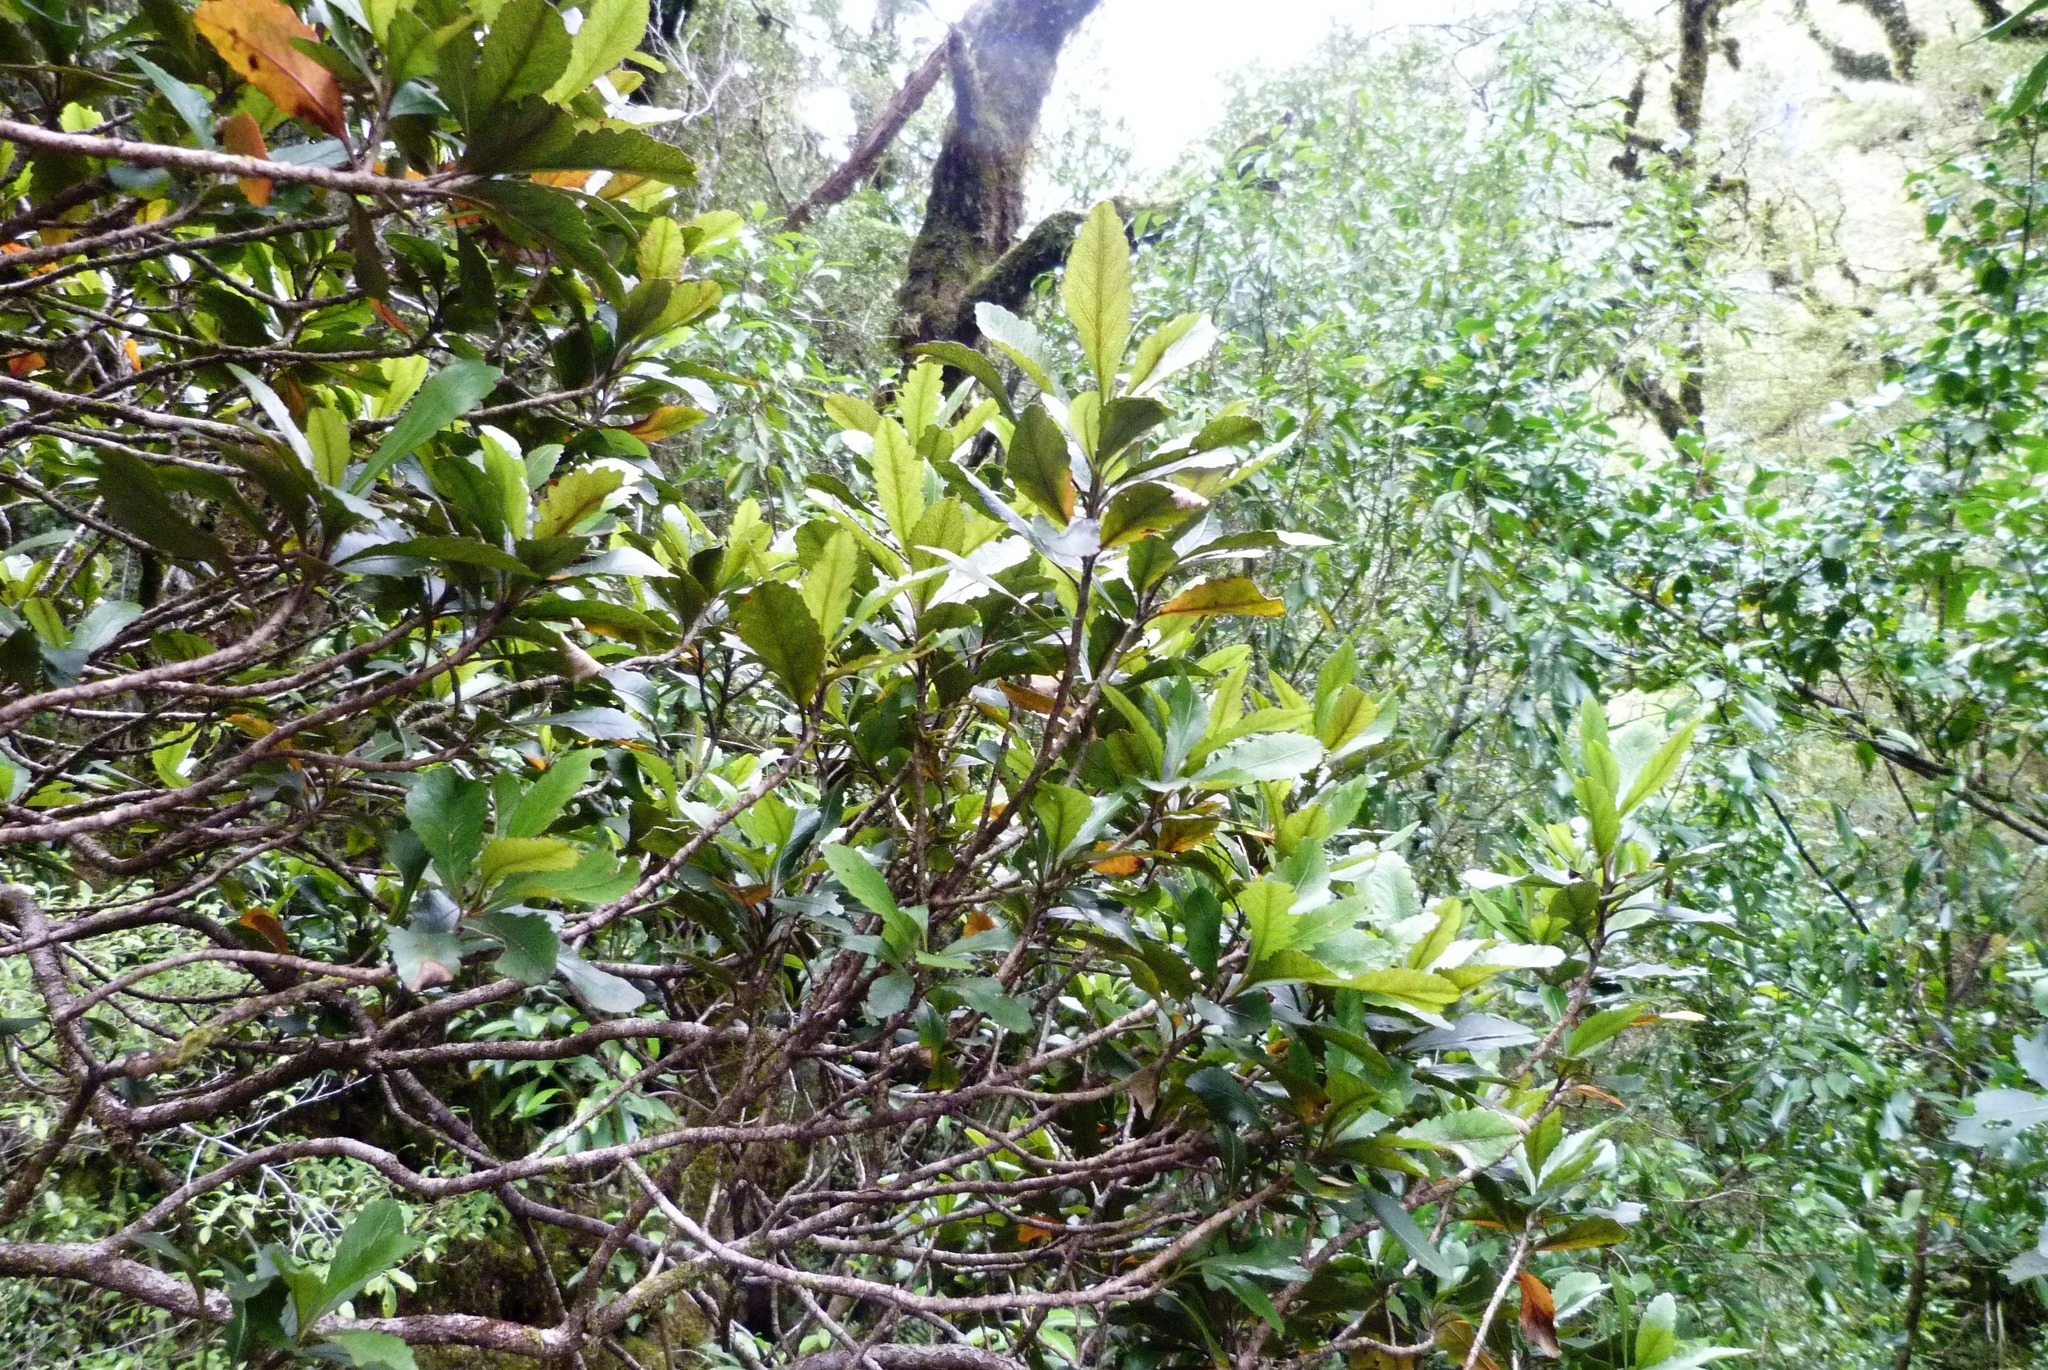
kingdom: Plantae
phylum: Tracheophyta
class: Magnoliopsida
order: Oxalidales
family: Elaeocarpaceae
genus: Elaeocarpus
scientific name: Elaeocarpus hookerianus
